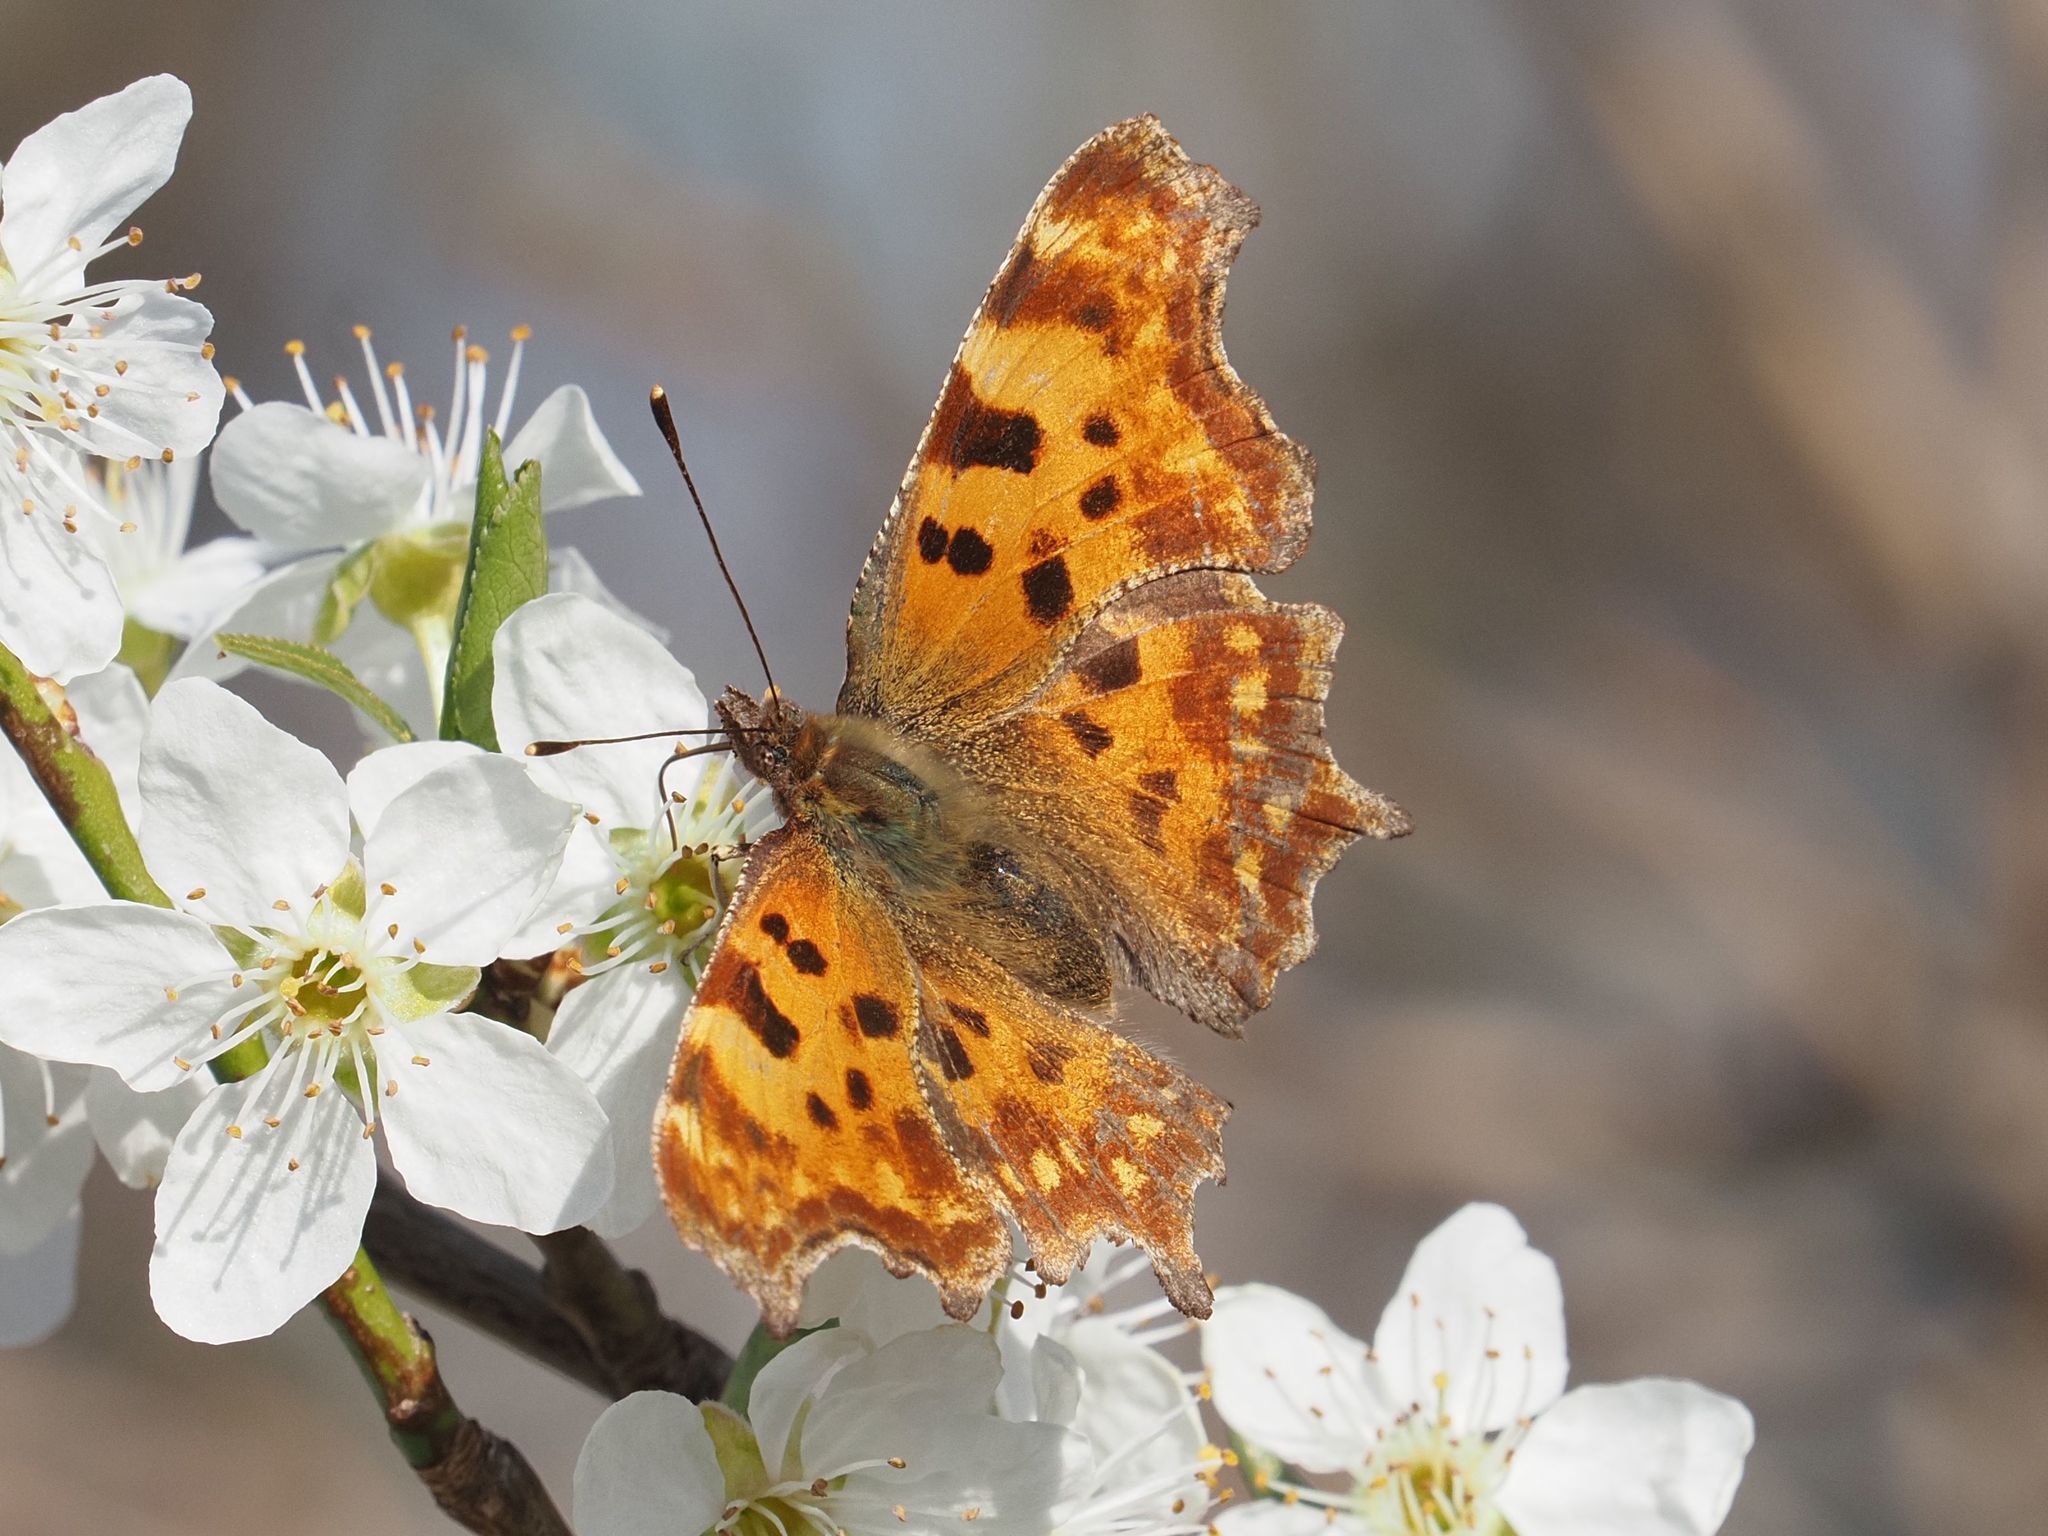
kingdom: Animalia
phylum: Arthropoda
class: Insecta
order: Lepidoptera
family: Nymphalidae
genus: Polygonia
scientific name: Polygonia c-album
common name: Comma
